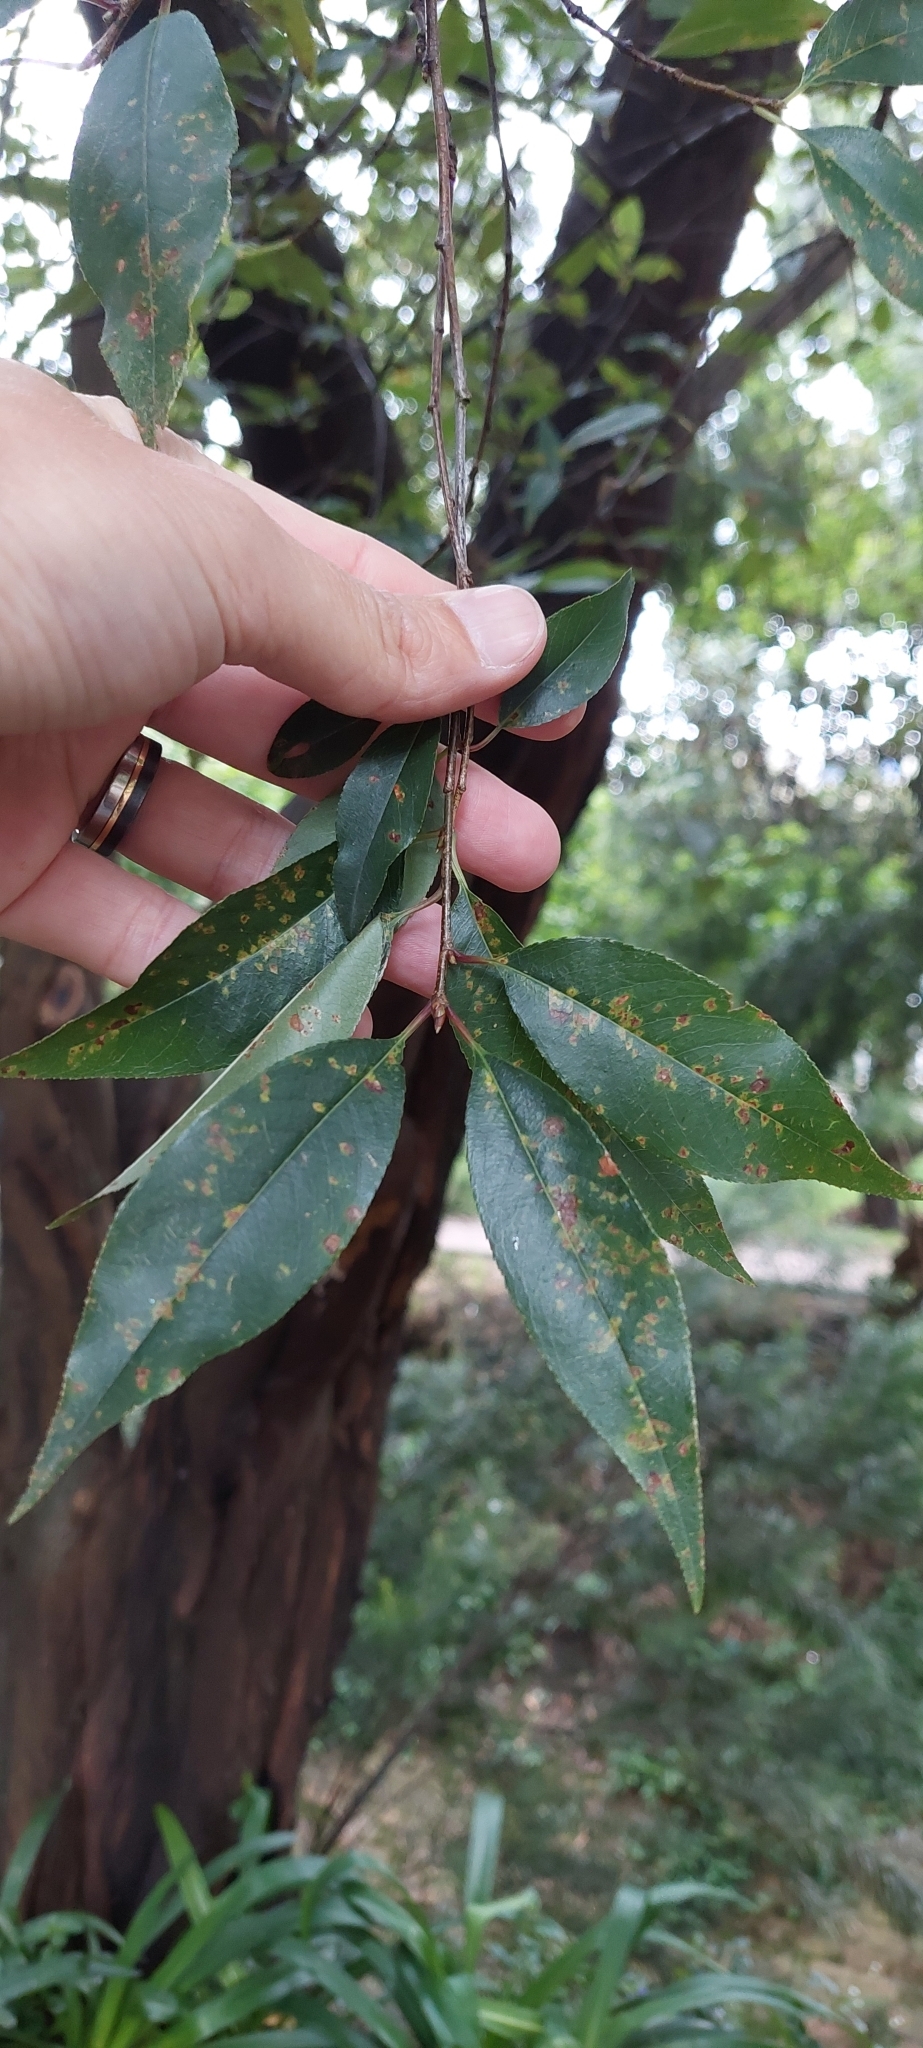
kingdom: Plantae
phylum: Tracheophyta
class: Magnoliopsida
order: Rosales
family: Rosaceae
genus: Prunus
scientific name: Prunus serotina
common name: Black cherry
